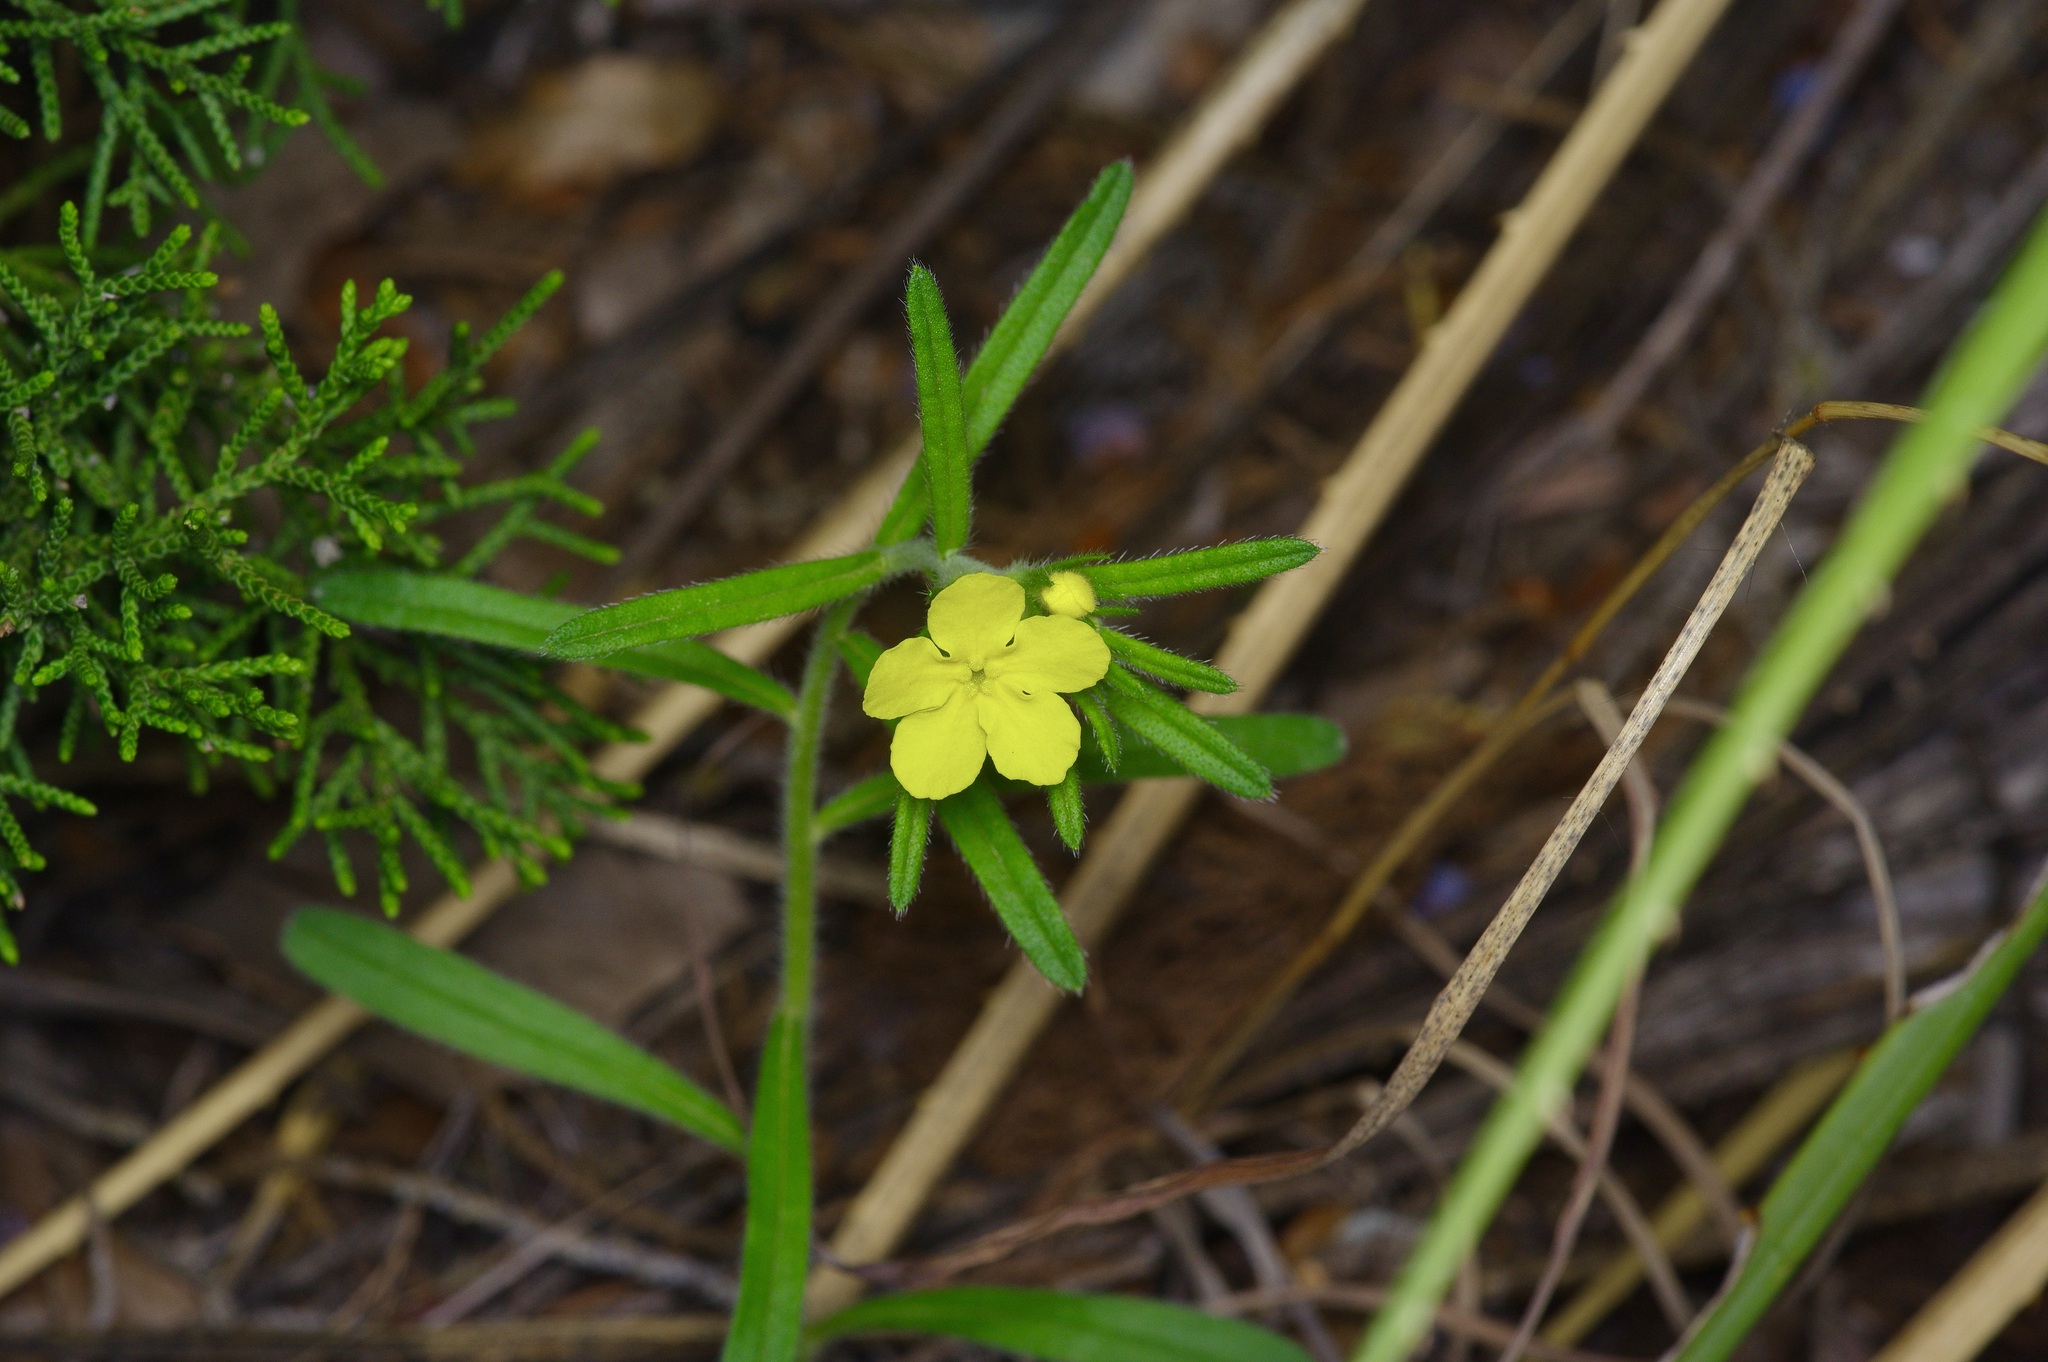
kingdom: Plantae
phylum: Tracheophyta
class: Magnoliopsida
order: Boraginales
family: Boraginaceae
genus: Lithospermum
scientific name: Lithospermum mirabile
